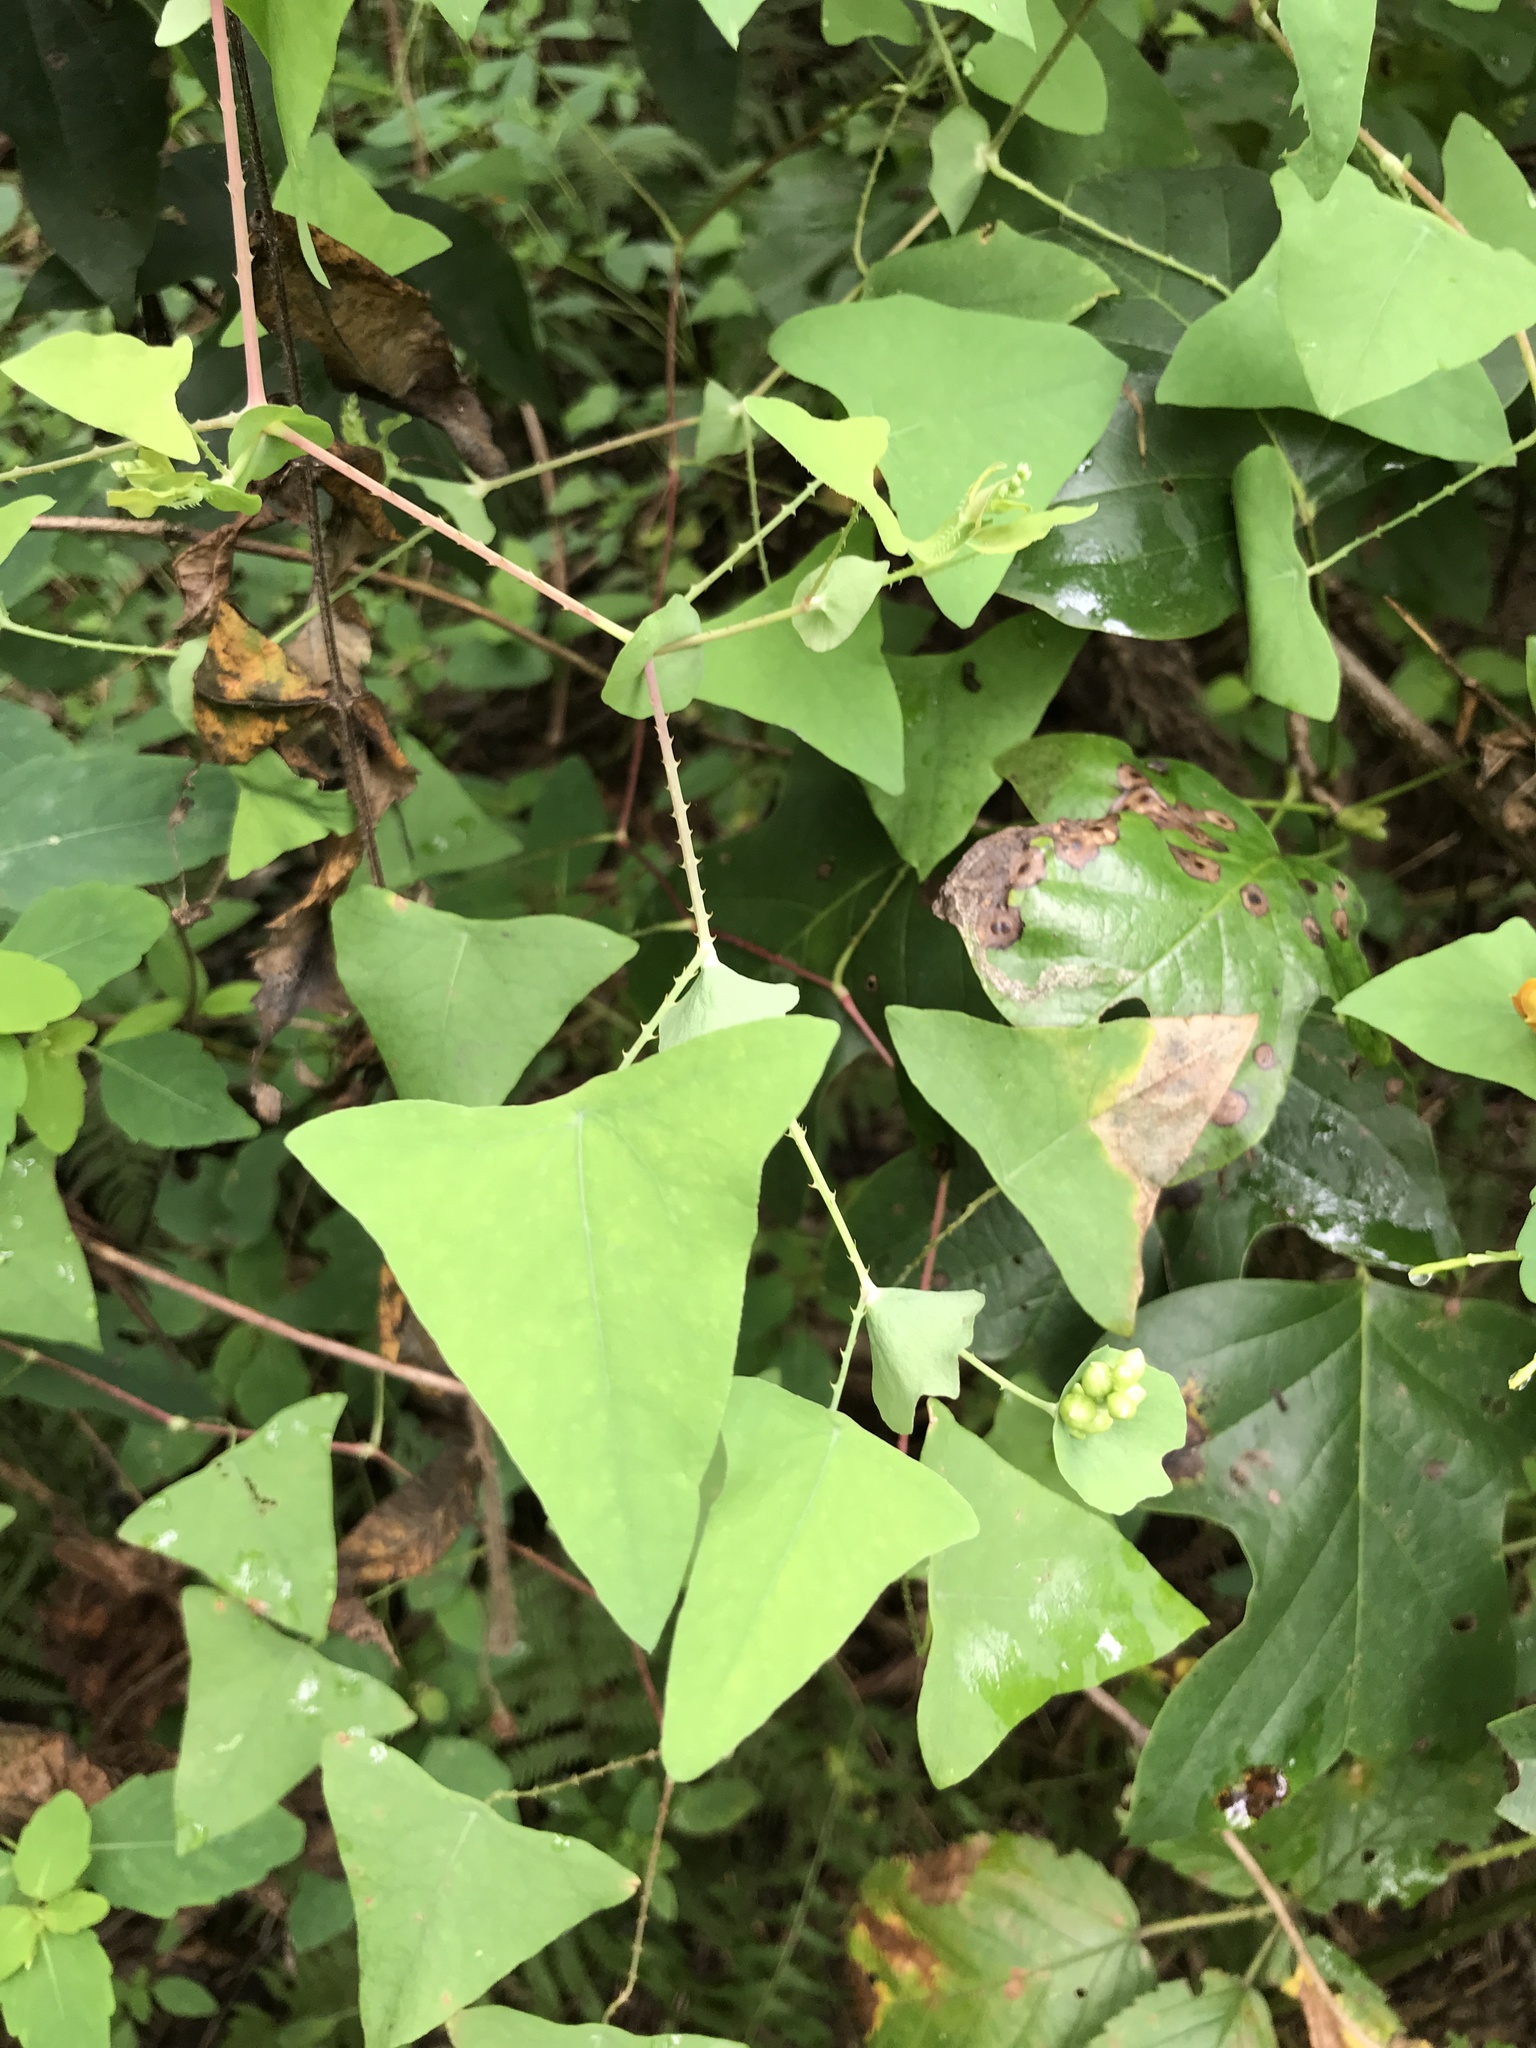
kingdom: Plantae
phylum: Tracheophyta
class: Magnoliopsida
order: Caryophyllales
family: Polygonaceae
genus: Persicaria
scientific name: Persicaria perfoliata
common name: Asiatic tearthumb
